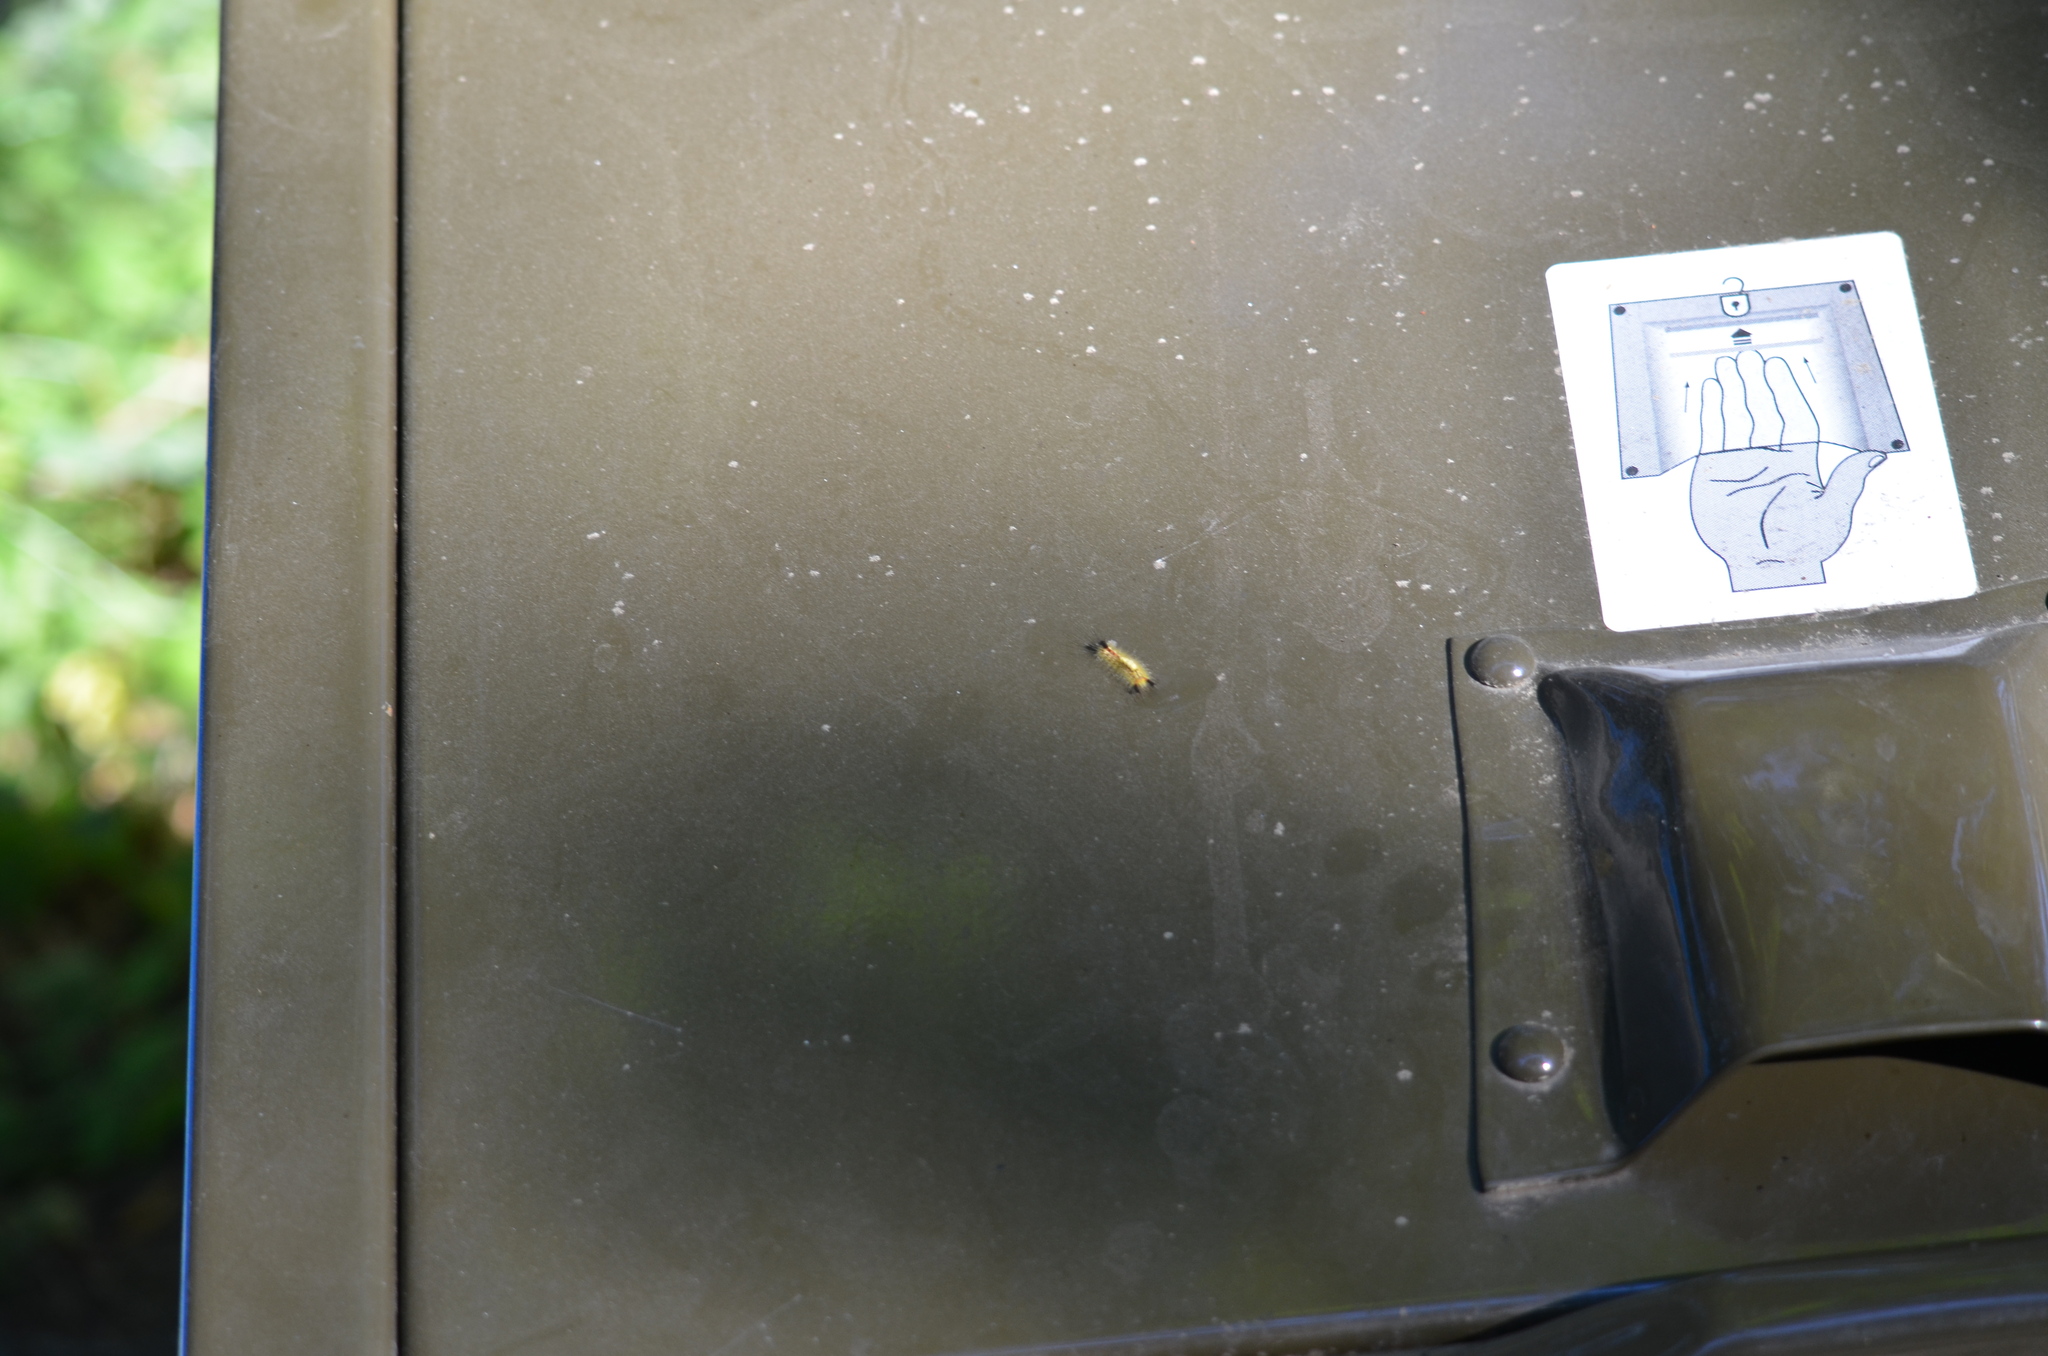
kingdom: Animalia
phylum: Arthropoda
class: Insecta
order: Lepidoptera
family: Erebidae
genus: Orgyia
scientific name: Orgyia antiqua
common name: Vapourer
